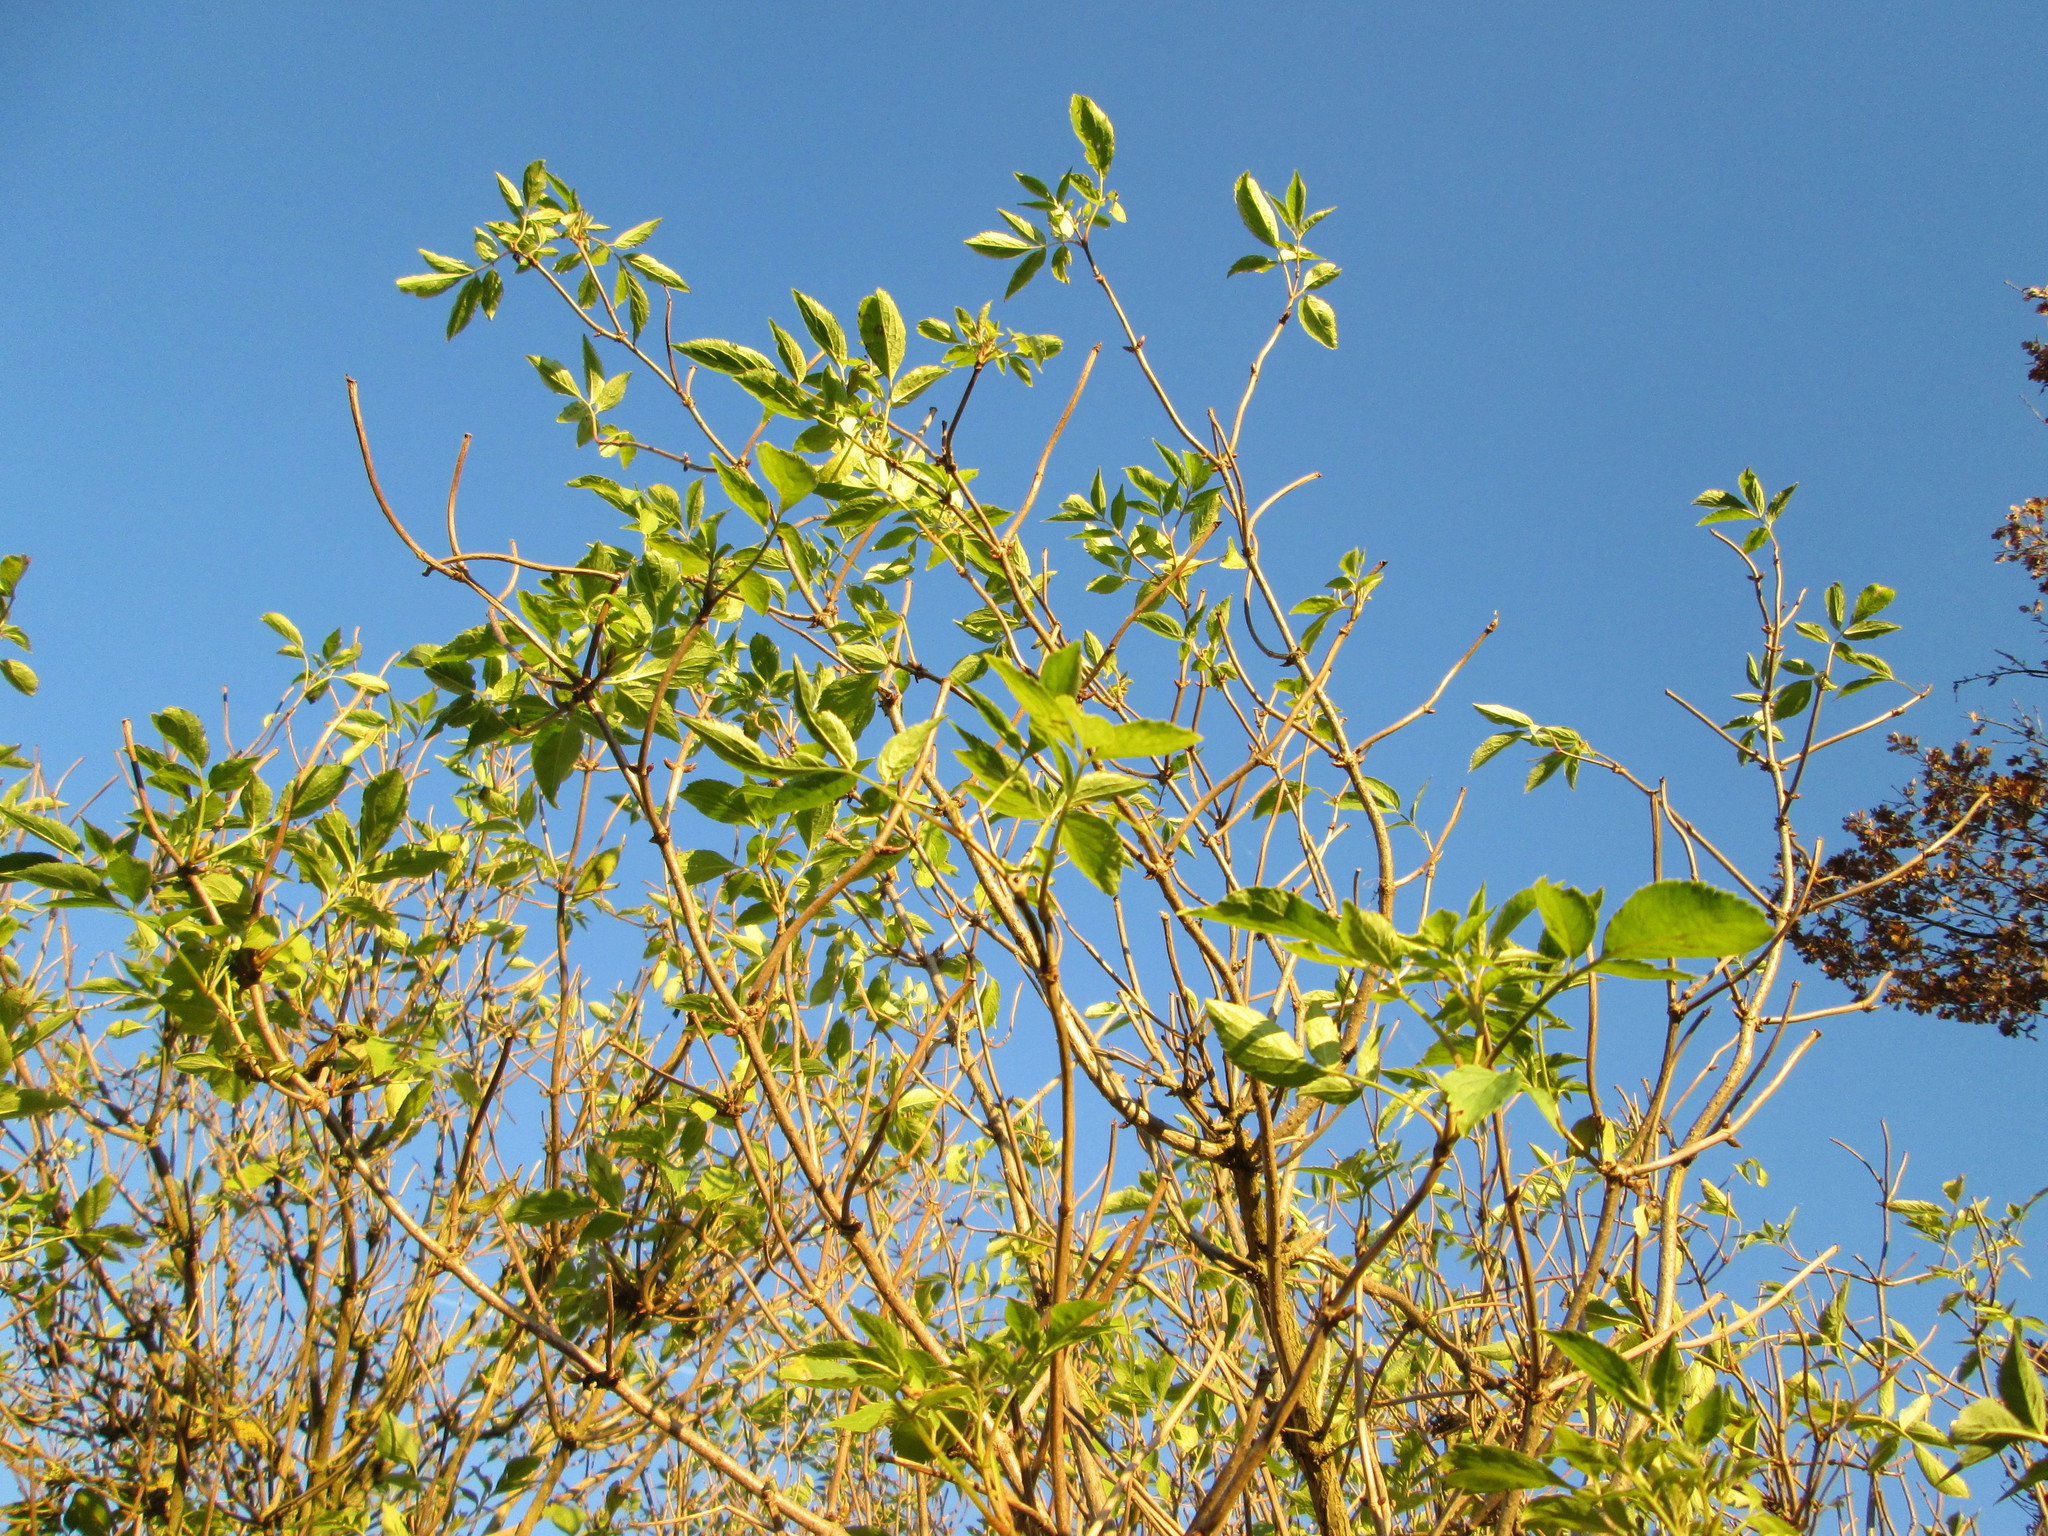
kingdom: Plantae
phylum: Tracheophyta
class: Magnoliopsida
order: Dipsacales
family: Viburnaceae
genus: Sambucus
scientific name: Sambucus nigra
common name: Elder
